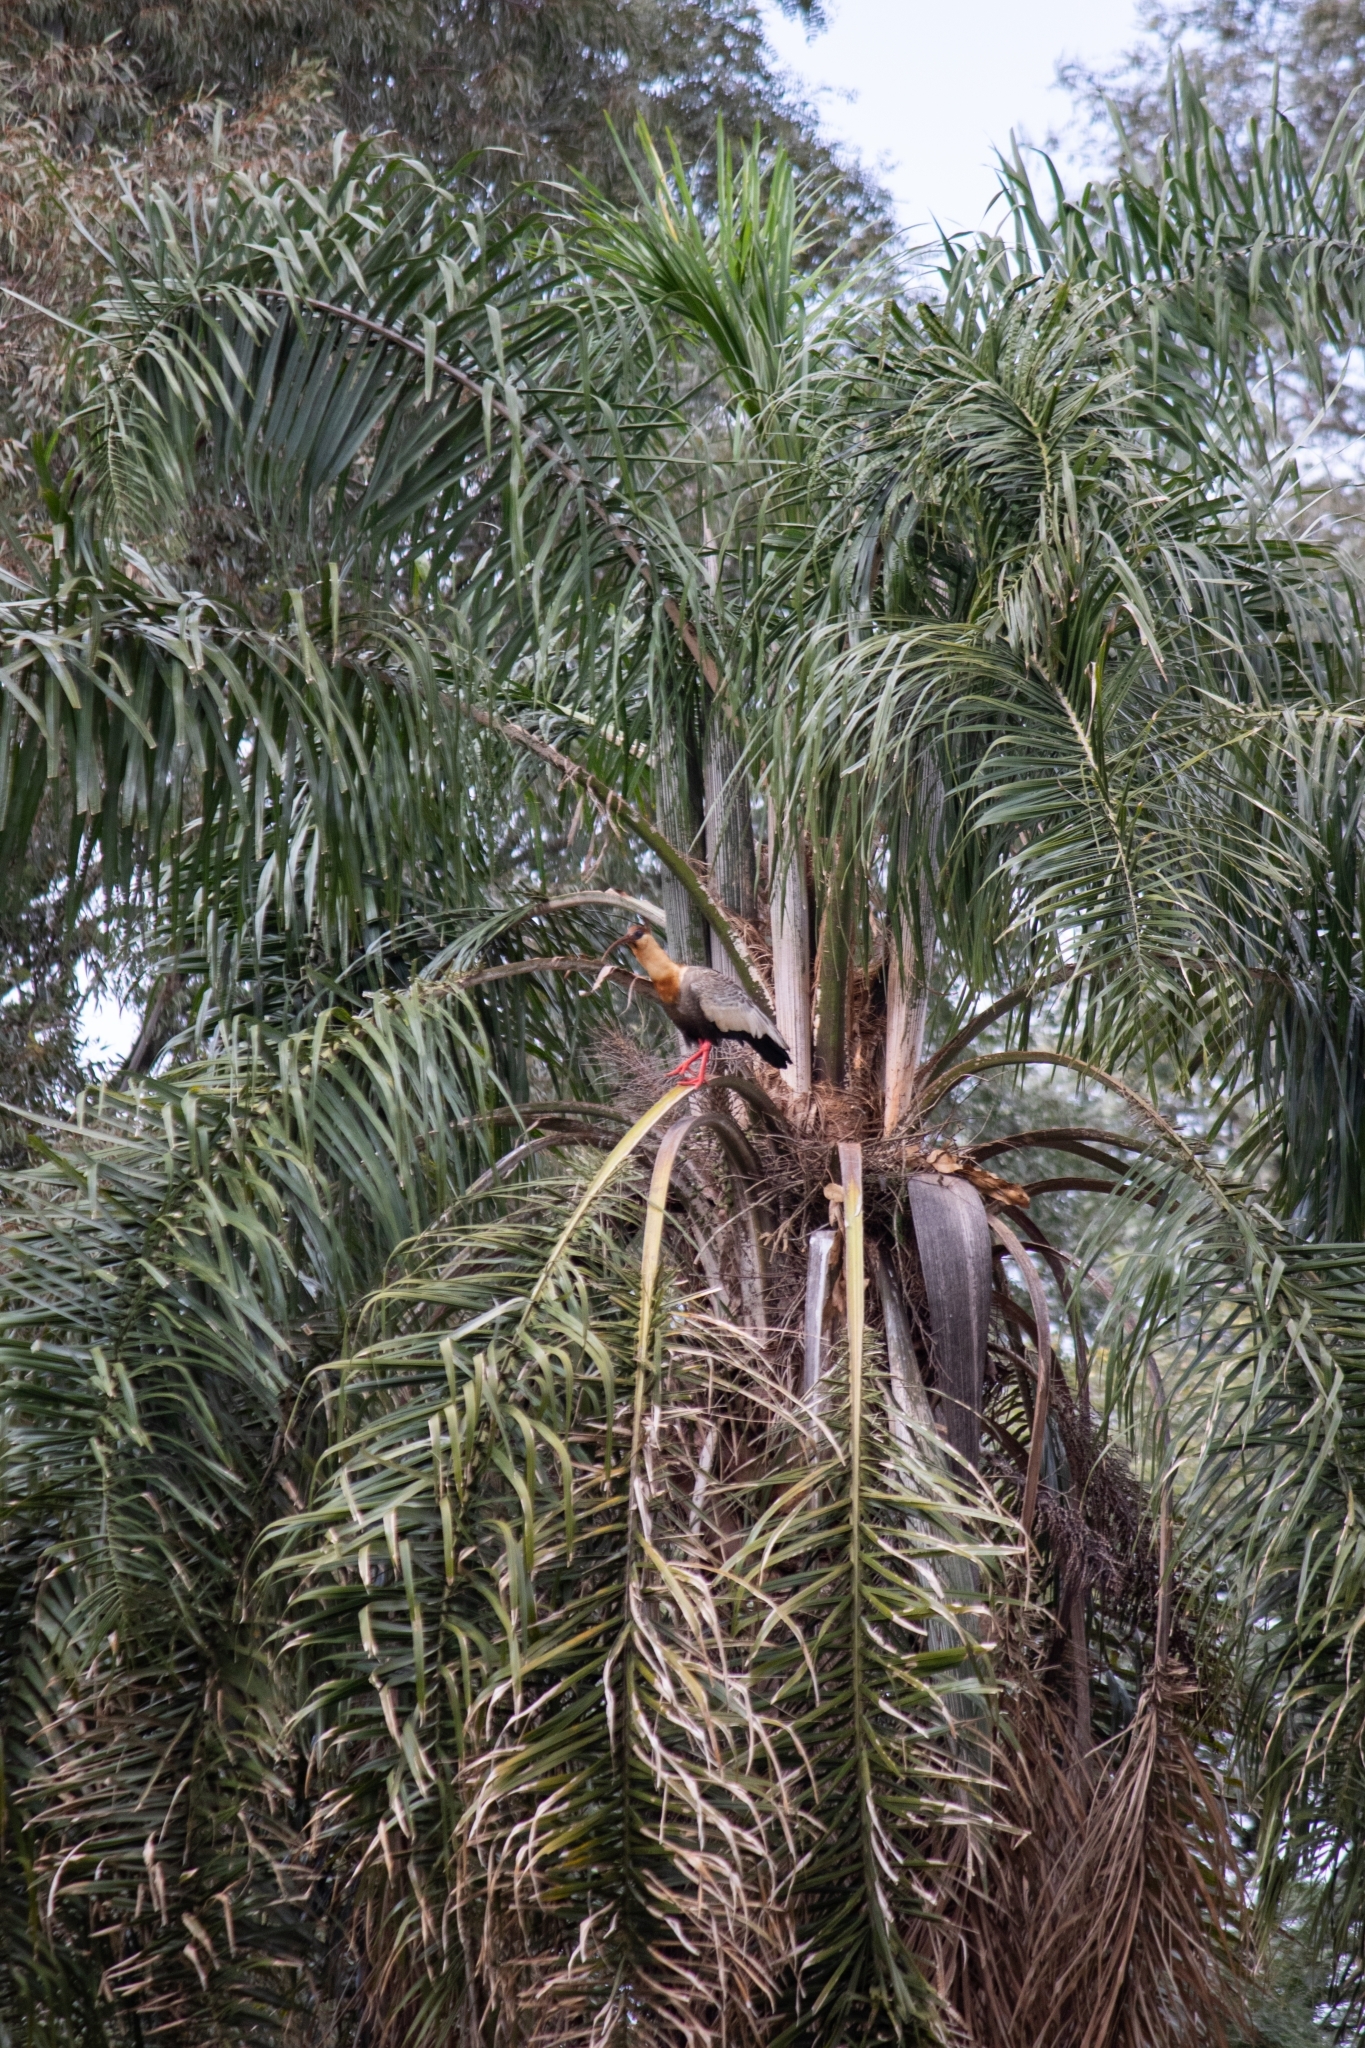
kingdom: Animalia
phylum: Chordata
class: Aves
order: Pelecaniformes
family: Threskiornithidae
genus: Theristicus
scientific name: Theristicus caudatus
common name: Buff-necked ibis
